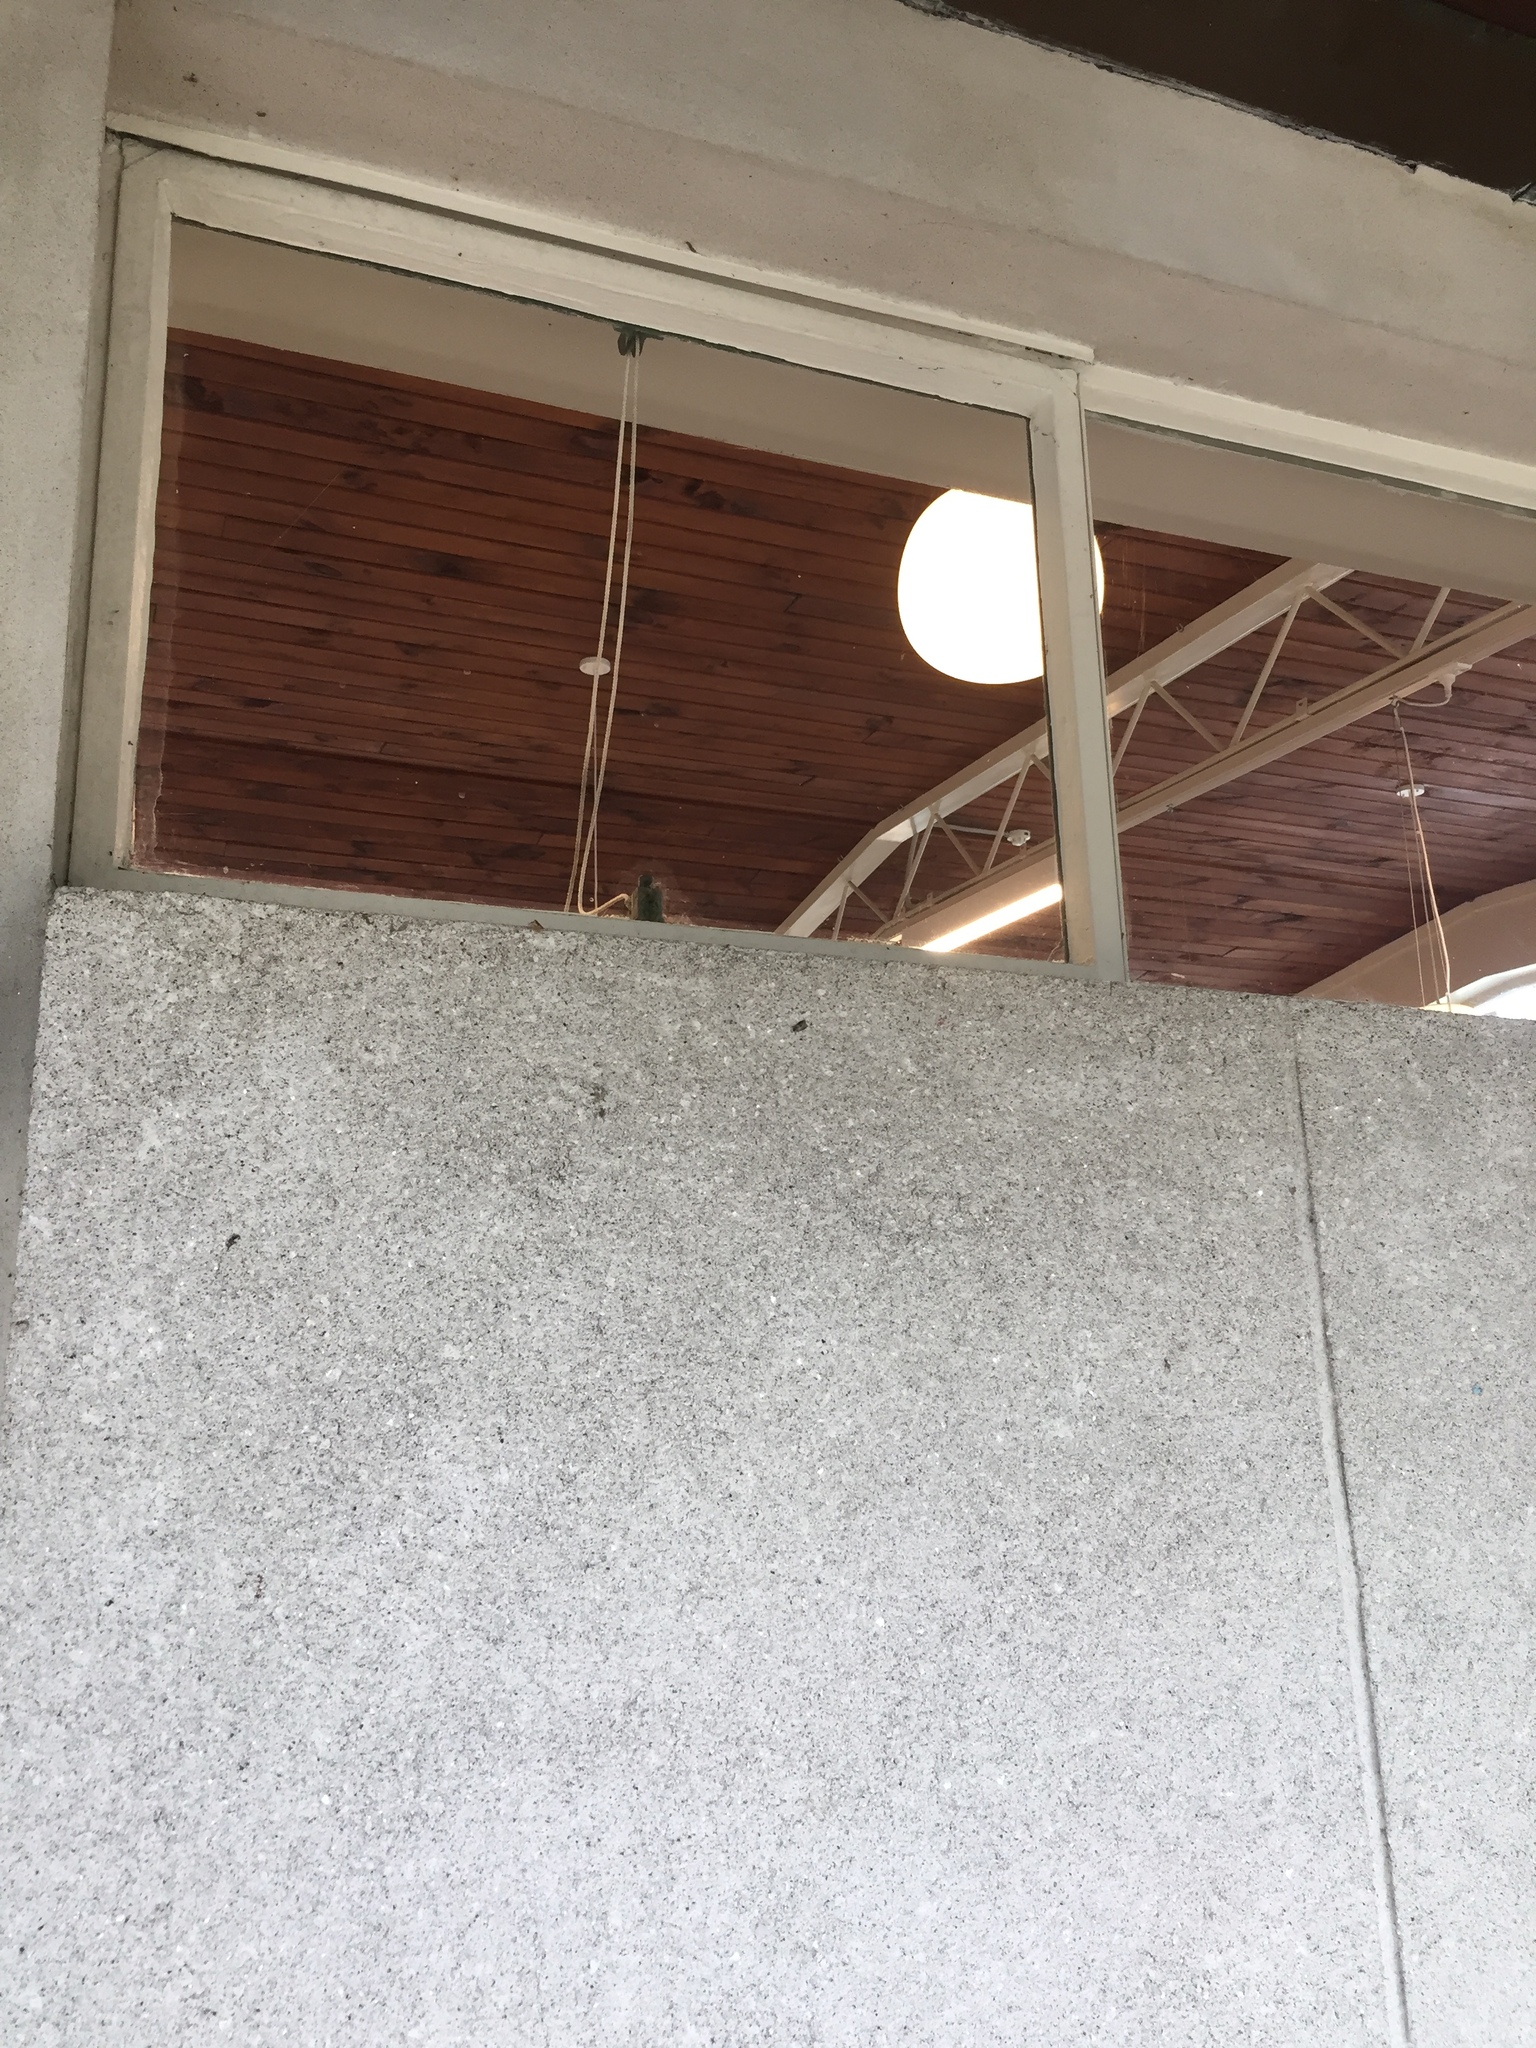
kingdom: Animalia
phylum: Arthropoda
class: Insecta
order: Lepidoptera
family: Psychidae
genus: Lepidoscia
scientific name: Lepidoscia heliochares
